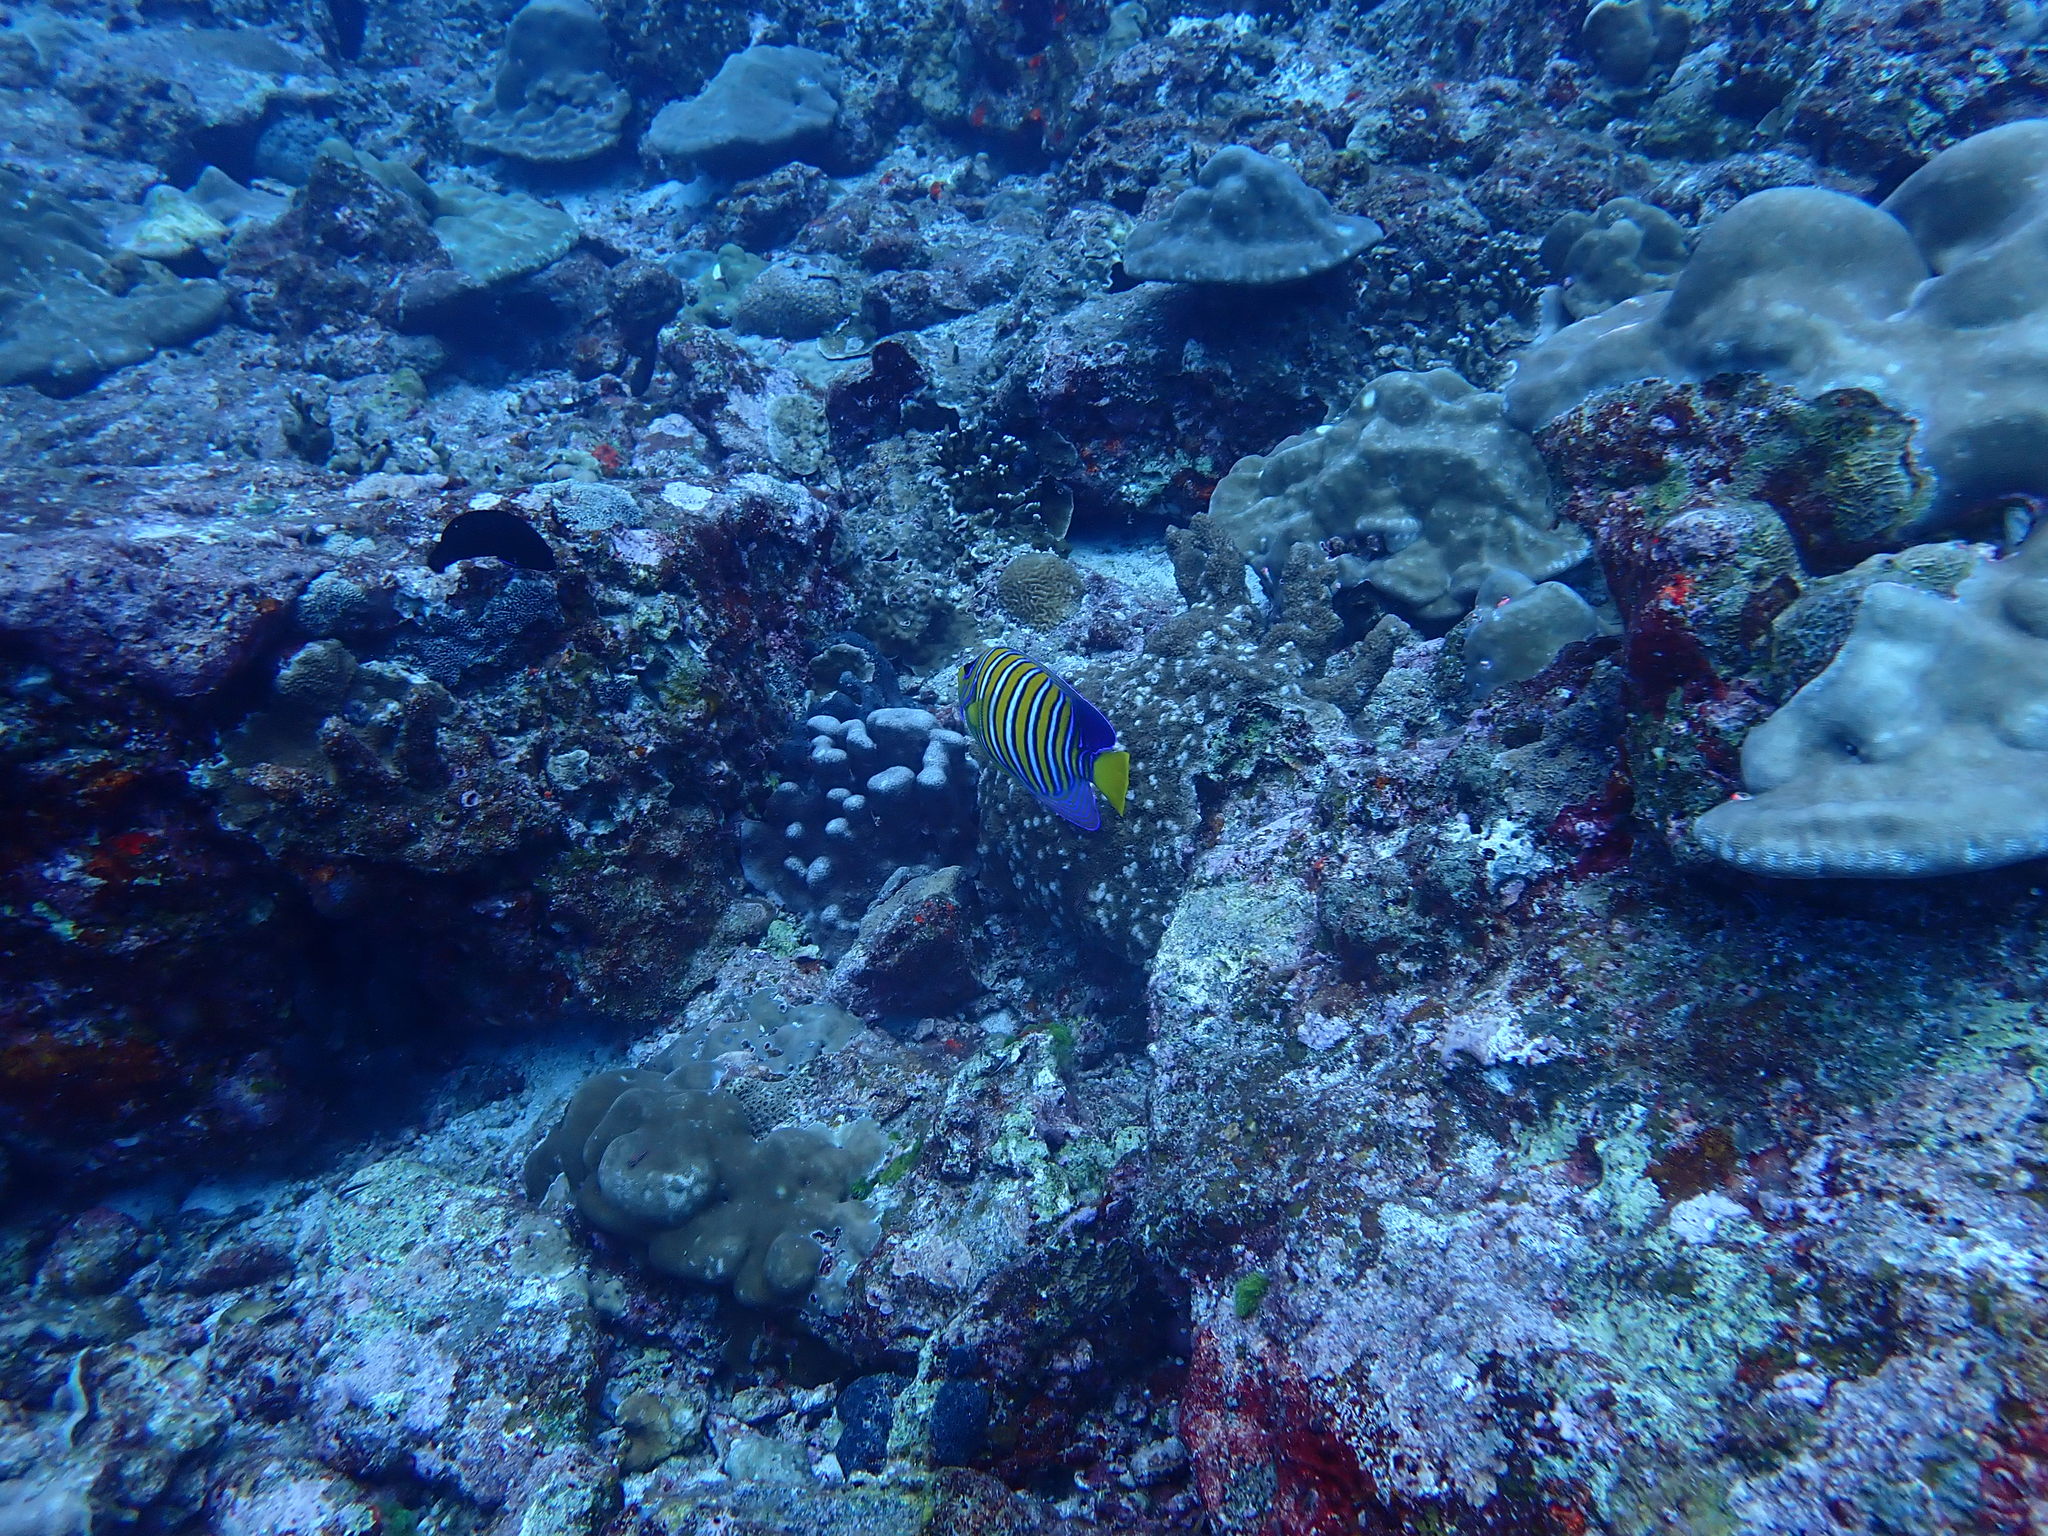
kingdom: Animalia
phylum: Chordata
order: Perciformes
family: Pomacanthidae
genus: Pygoplites
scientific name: Pygoplites diacanthus
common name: Regal angelfish
